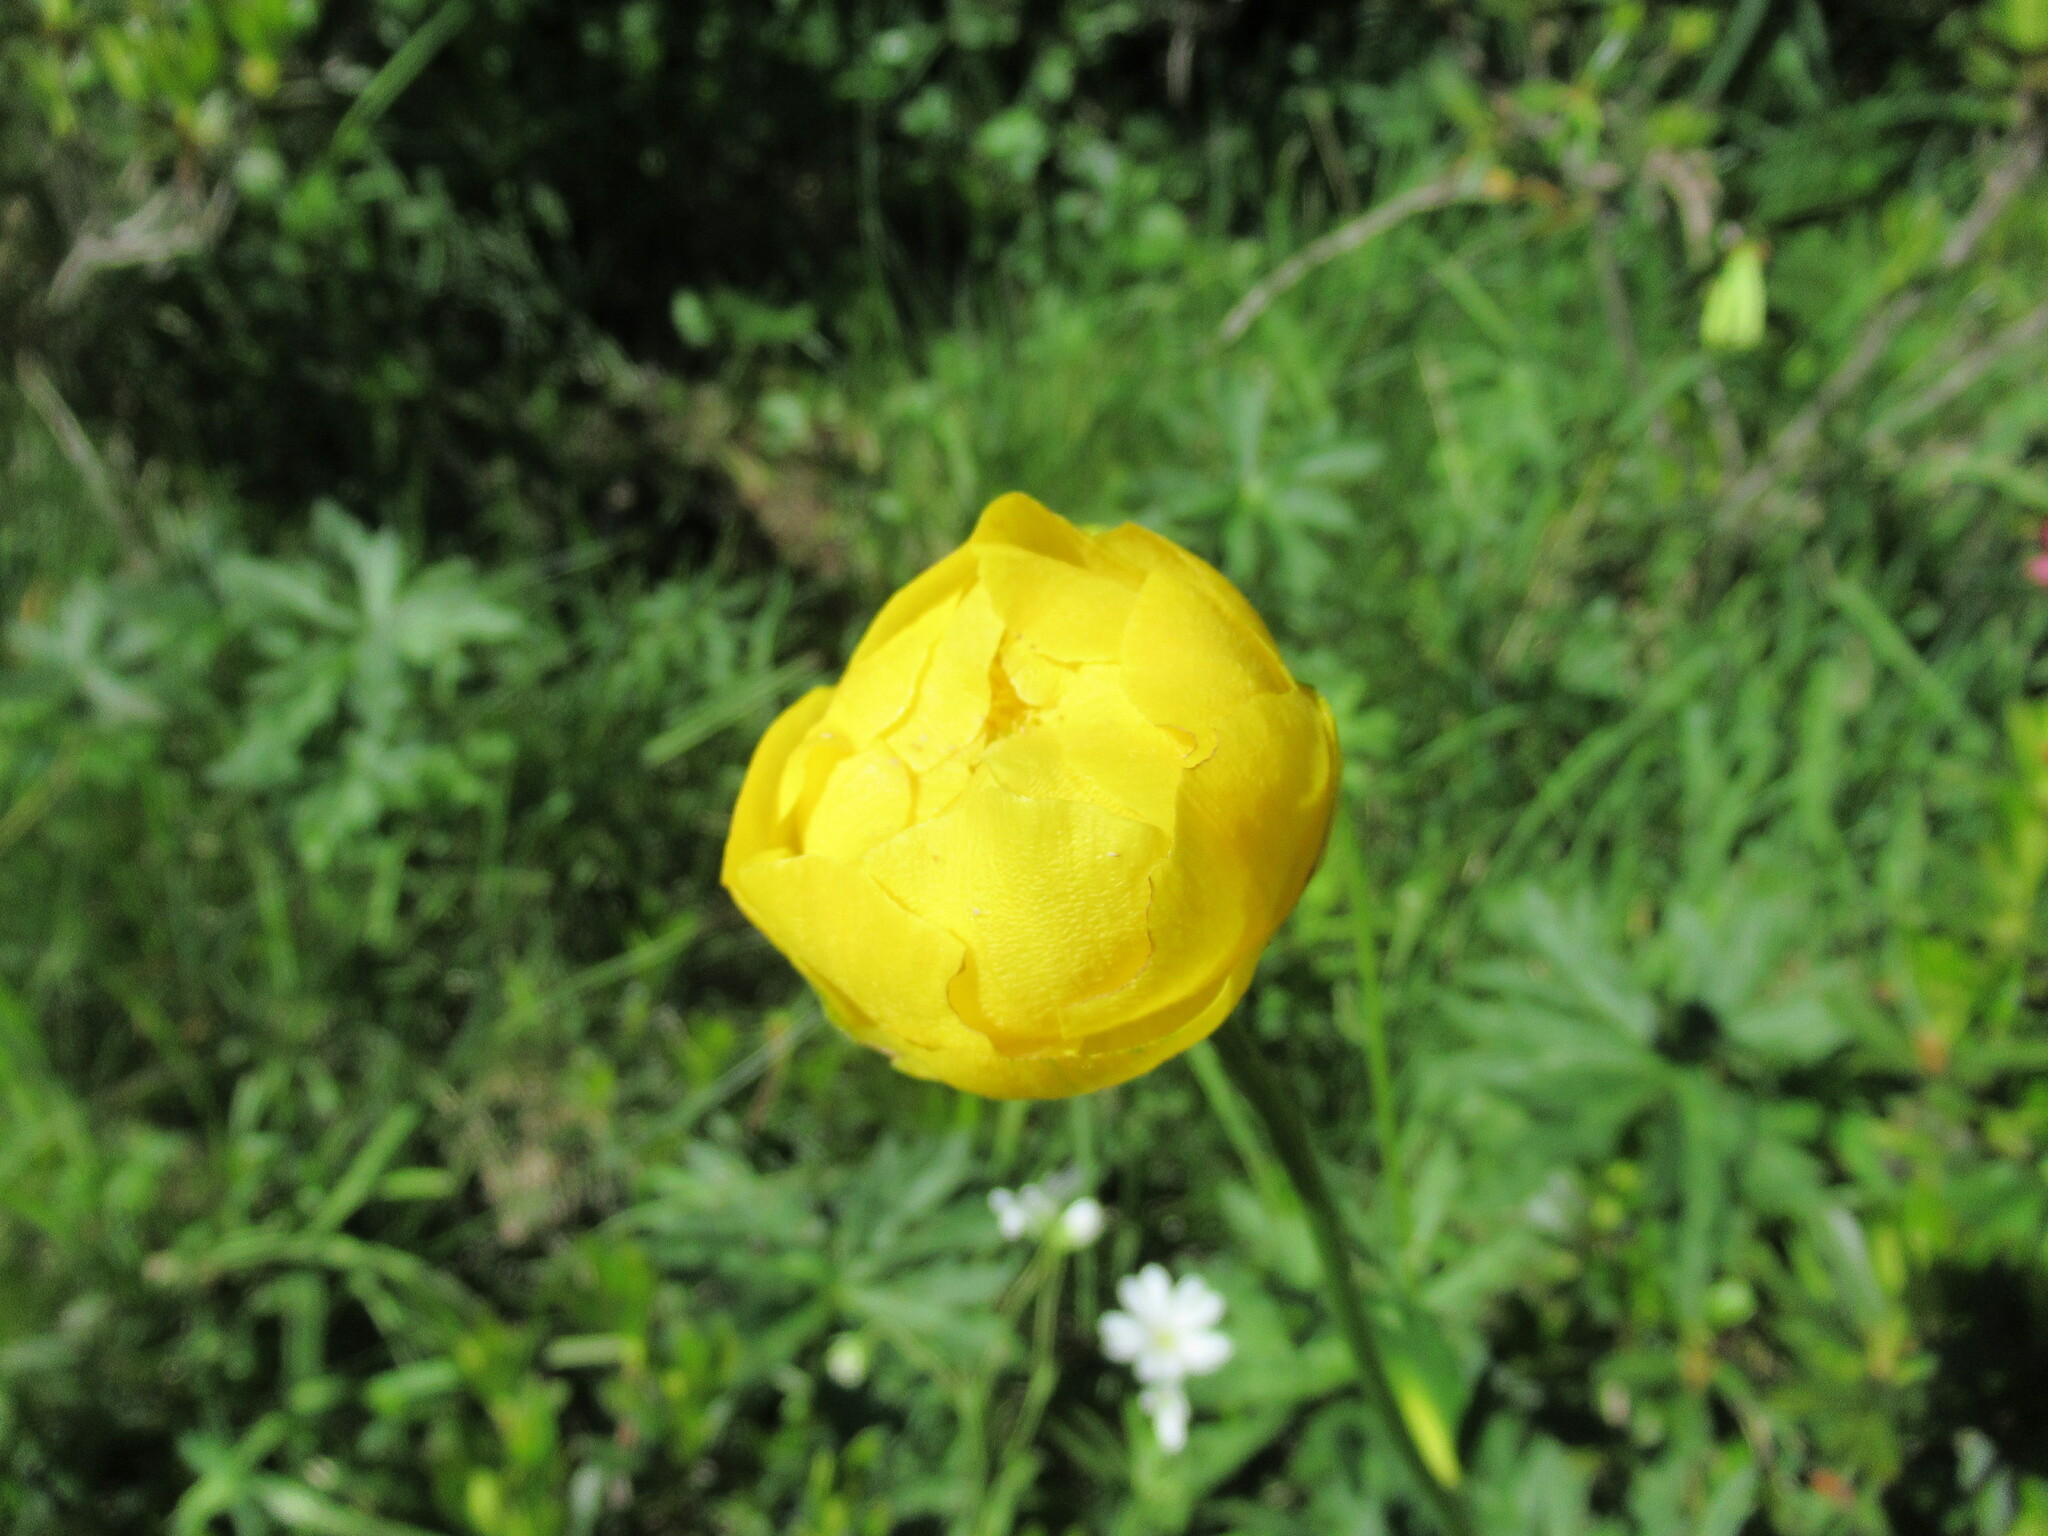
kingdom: Plantae
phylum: Tracheophyta
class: Magnoliopsida
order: Ranunculales
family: Ranunculaceae
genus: Trollius
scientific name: Trollius europaeus
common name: European globeflower
